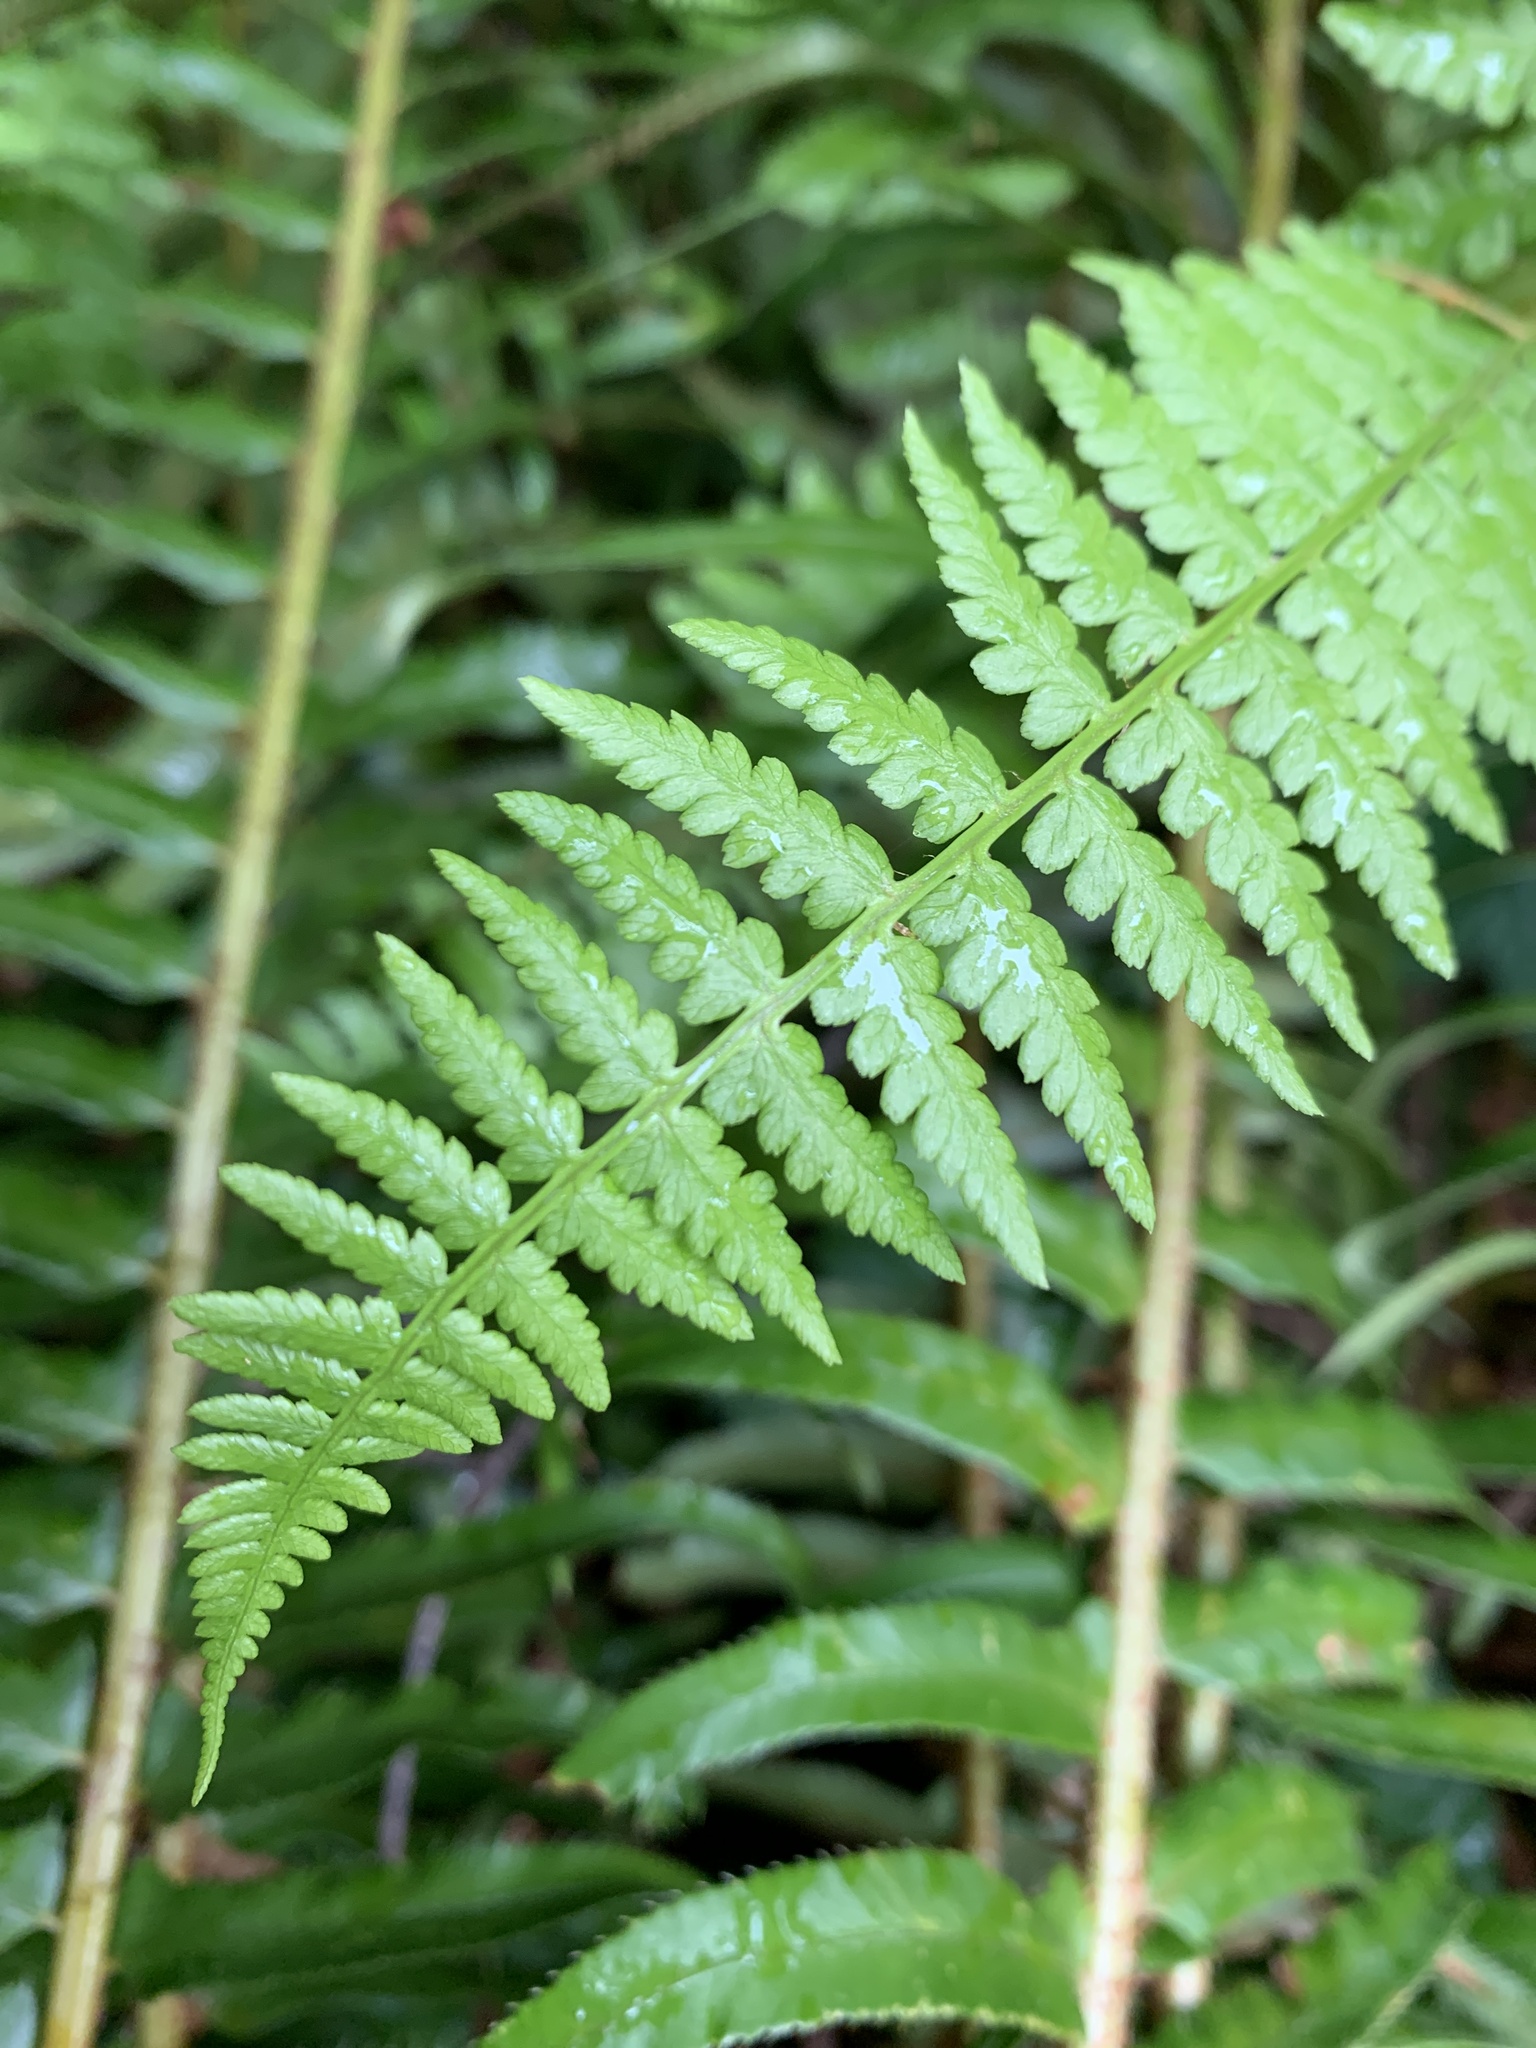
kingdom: Plantae
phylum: Tracheophyta
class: Polypodiopsida
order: Polypodiales
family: Athyriaceae
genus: Athyrium
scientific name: Athyrium cyclosorum
